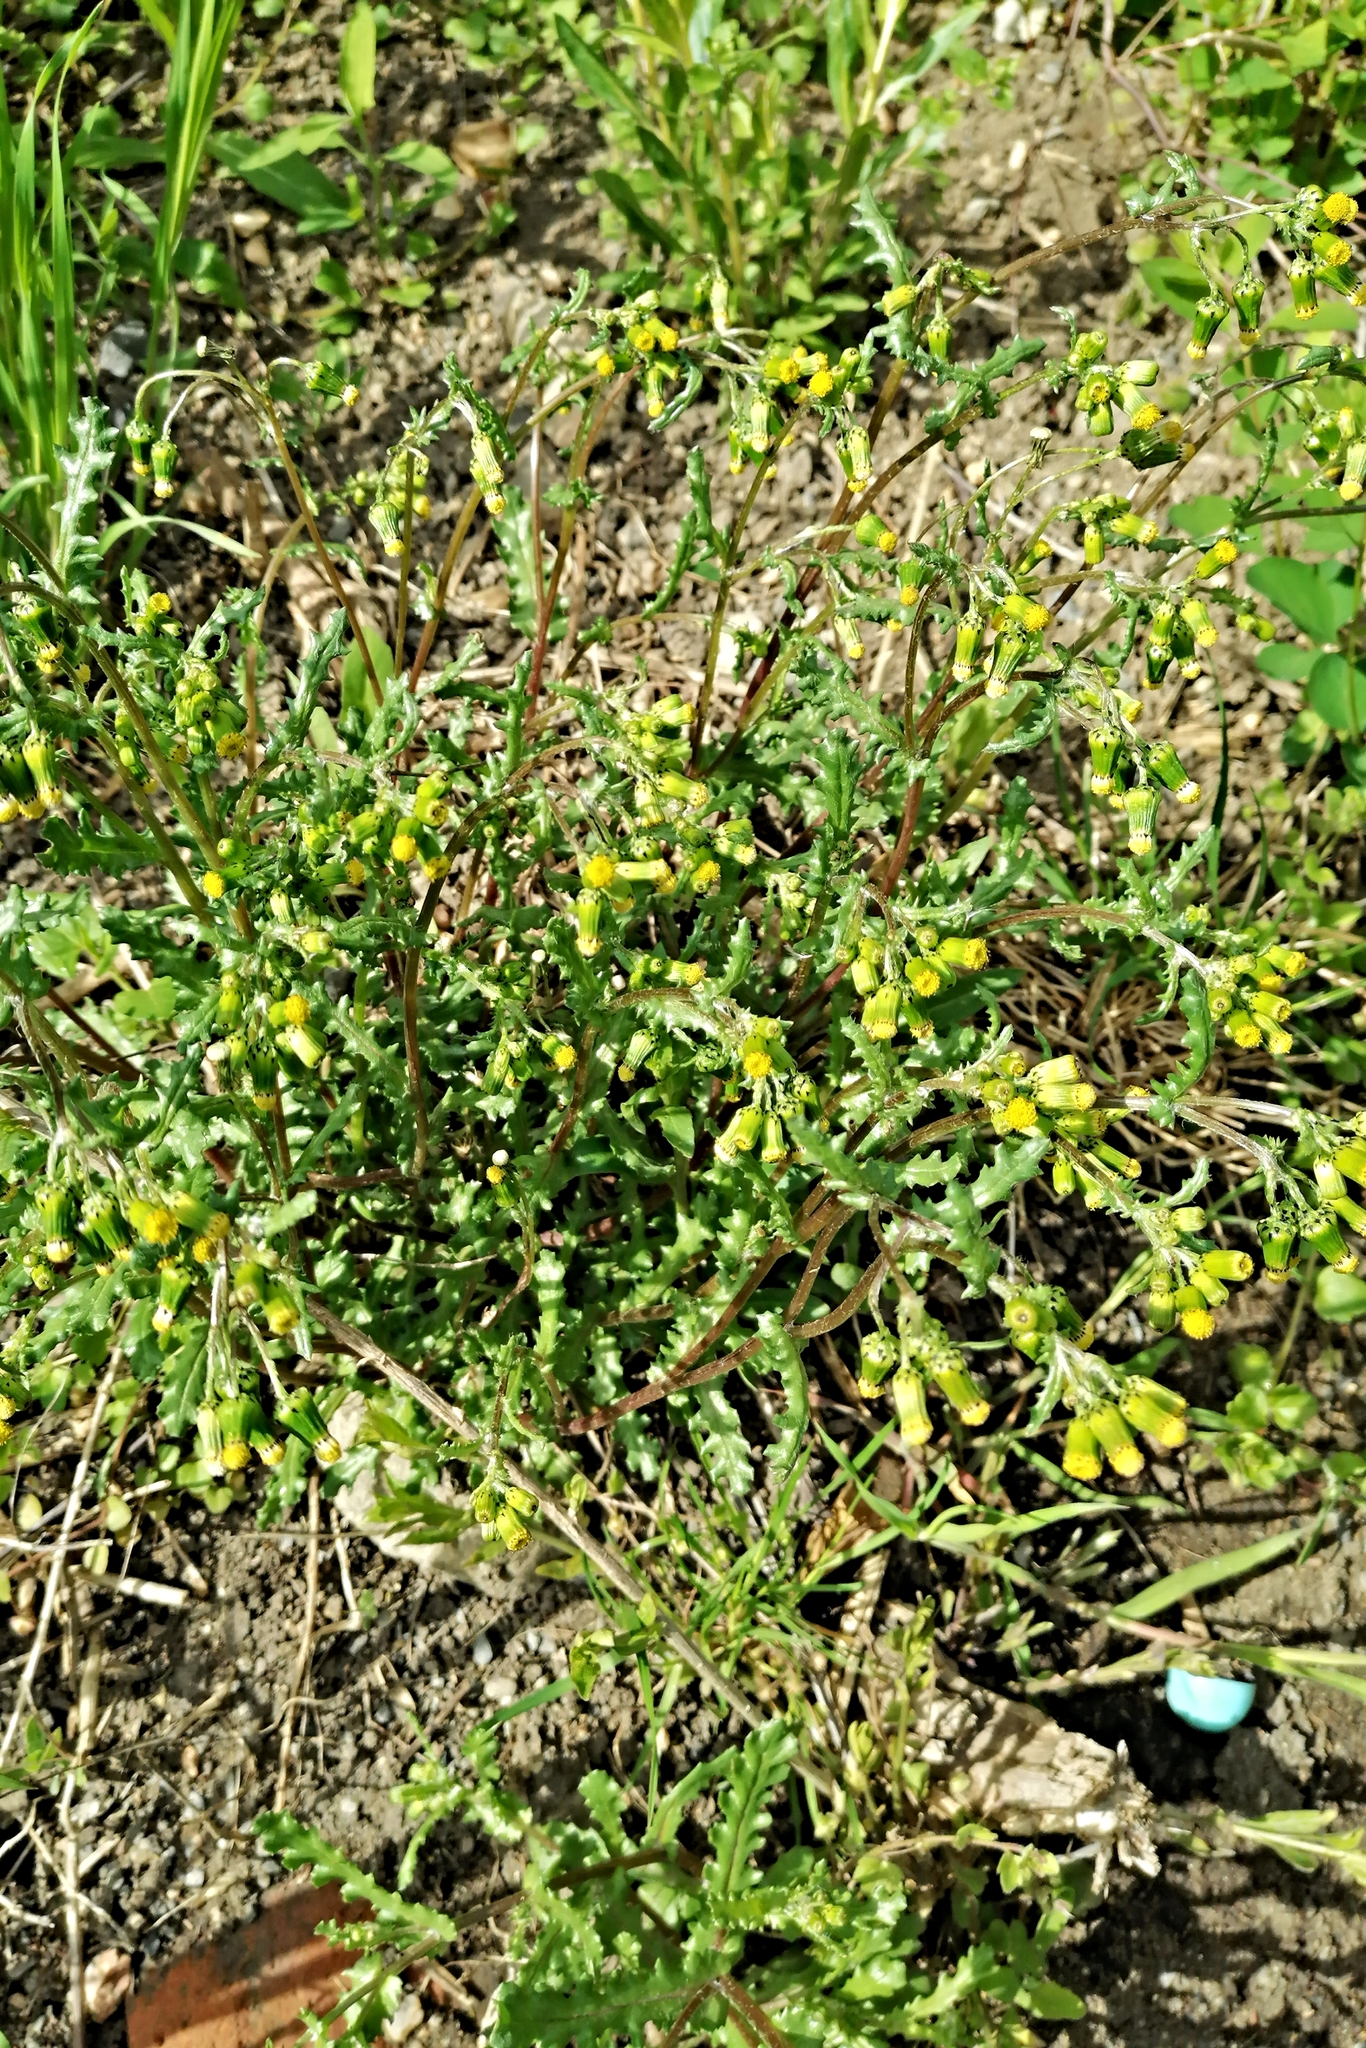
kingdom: Plantae
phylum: Tracheophyta
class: Magnoliopsida
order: Asterales
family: Asteraceae
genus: Senecio
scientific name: Senecio vulgaris
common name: Old-man-in-the-spring
